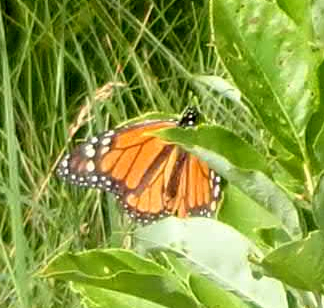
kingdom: Animalia
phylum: Arthropoda
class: Insecta
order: Lepidoptera
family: Nymphalidae
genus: Danaus
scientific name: Danaus plexippus
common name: Monarch
